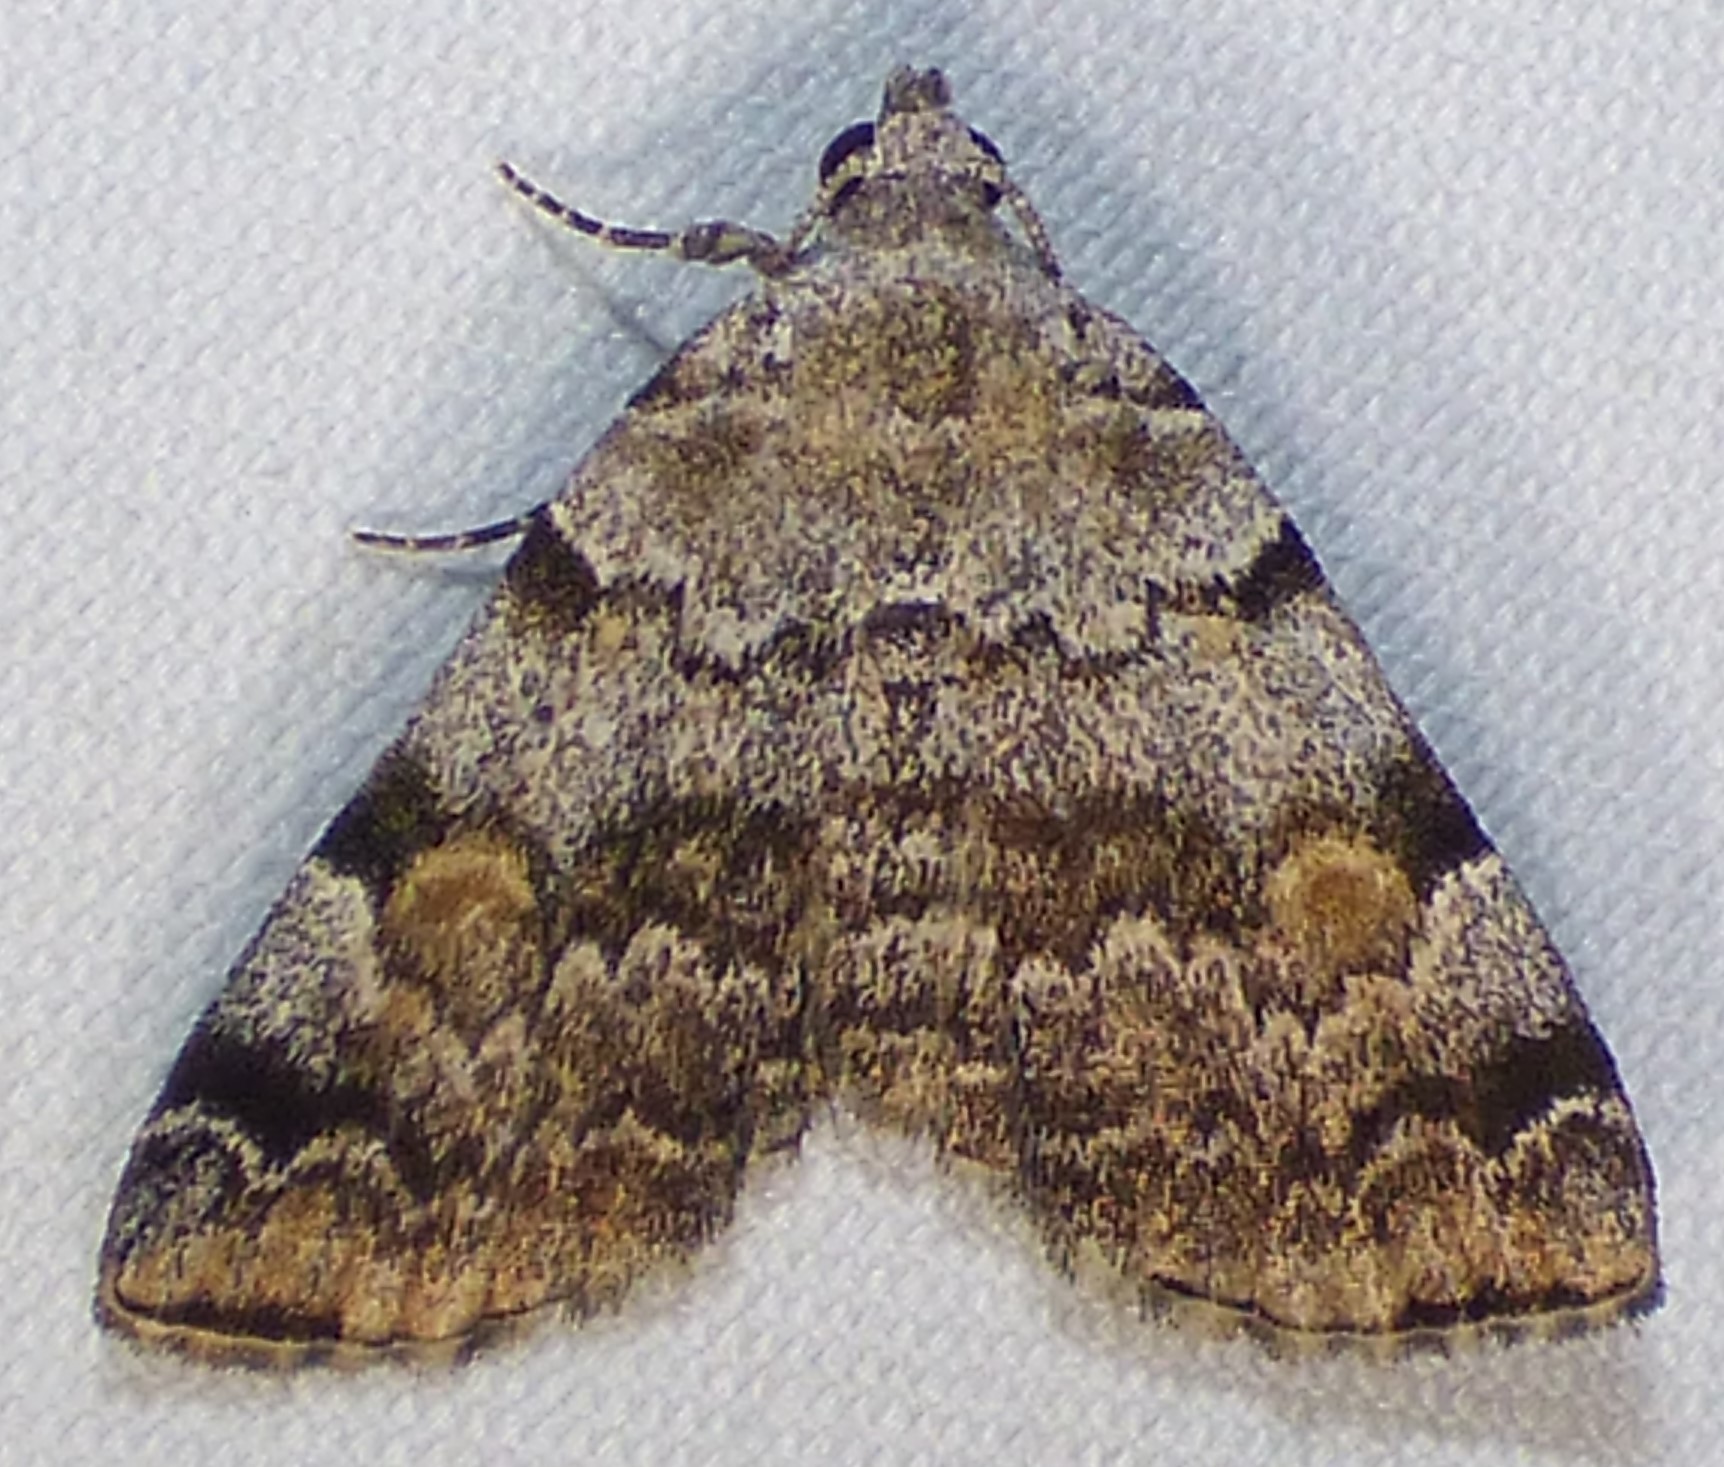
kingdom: Animalia
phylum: Arthropoda
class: Insecta
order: Lepidoptera
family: Erebidae
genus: Idia
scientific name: Idia americalis
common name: American idia moth
